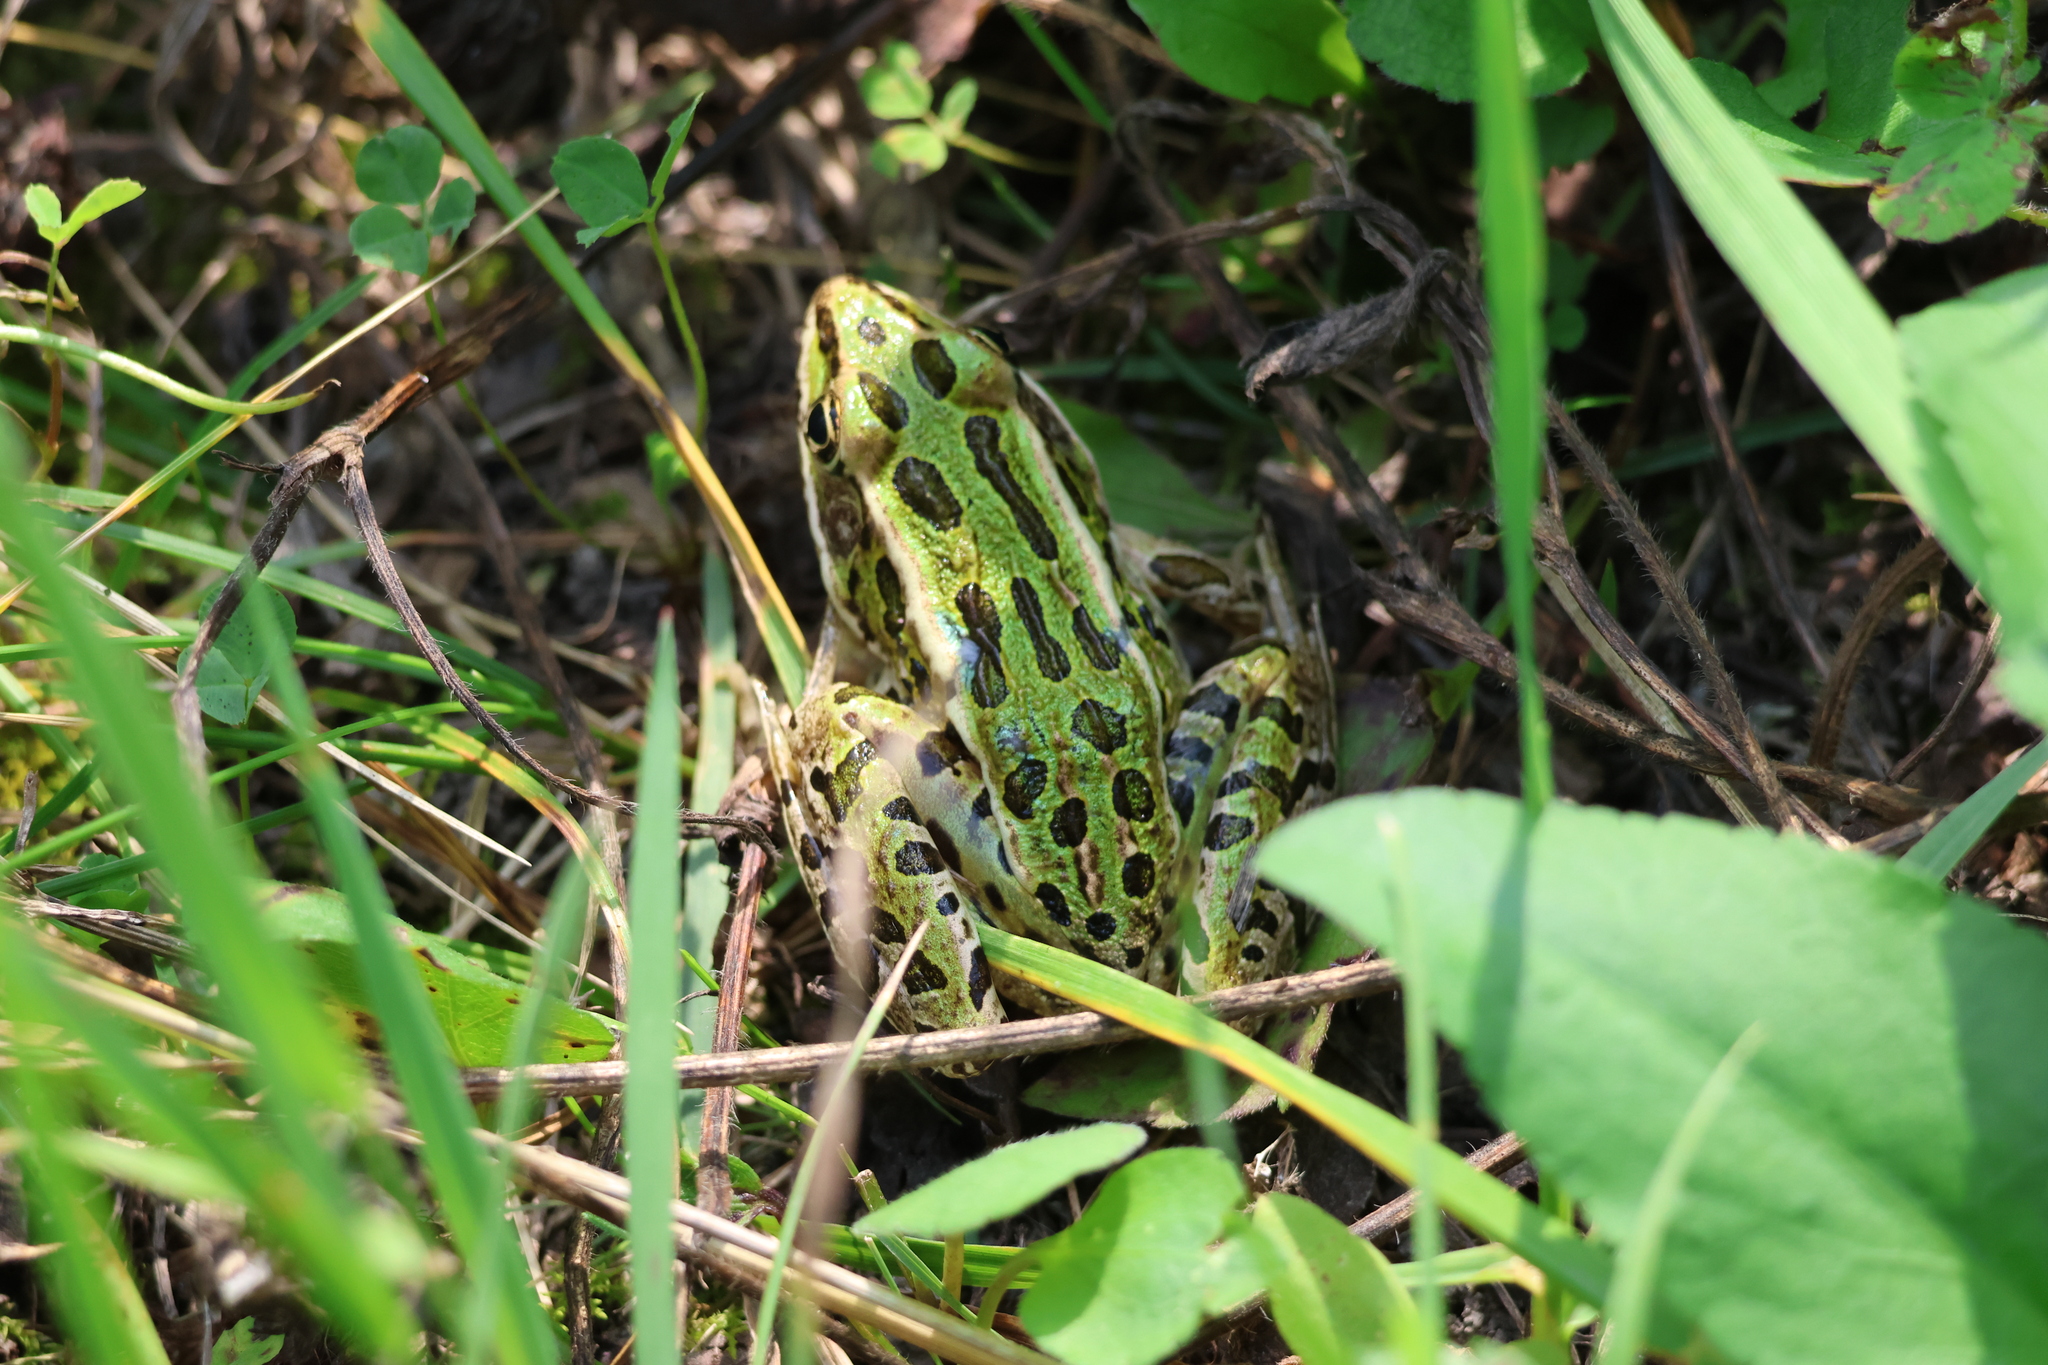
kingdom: Animalia
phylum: Chordata
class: Amphibia
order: Anura
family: Ranidae
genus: Lithobates
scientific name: Lithobates pipiens
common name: Northern leopard frog
